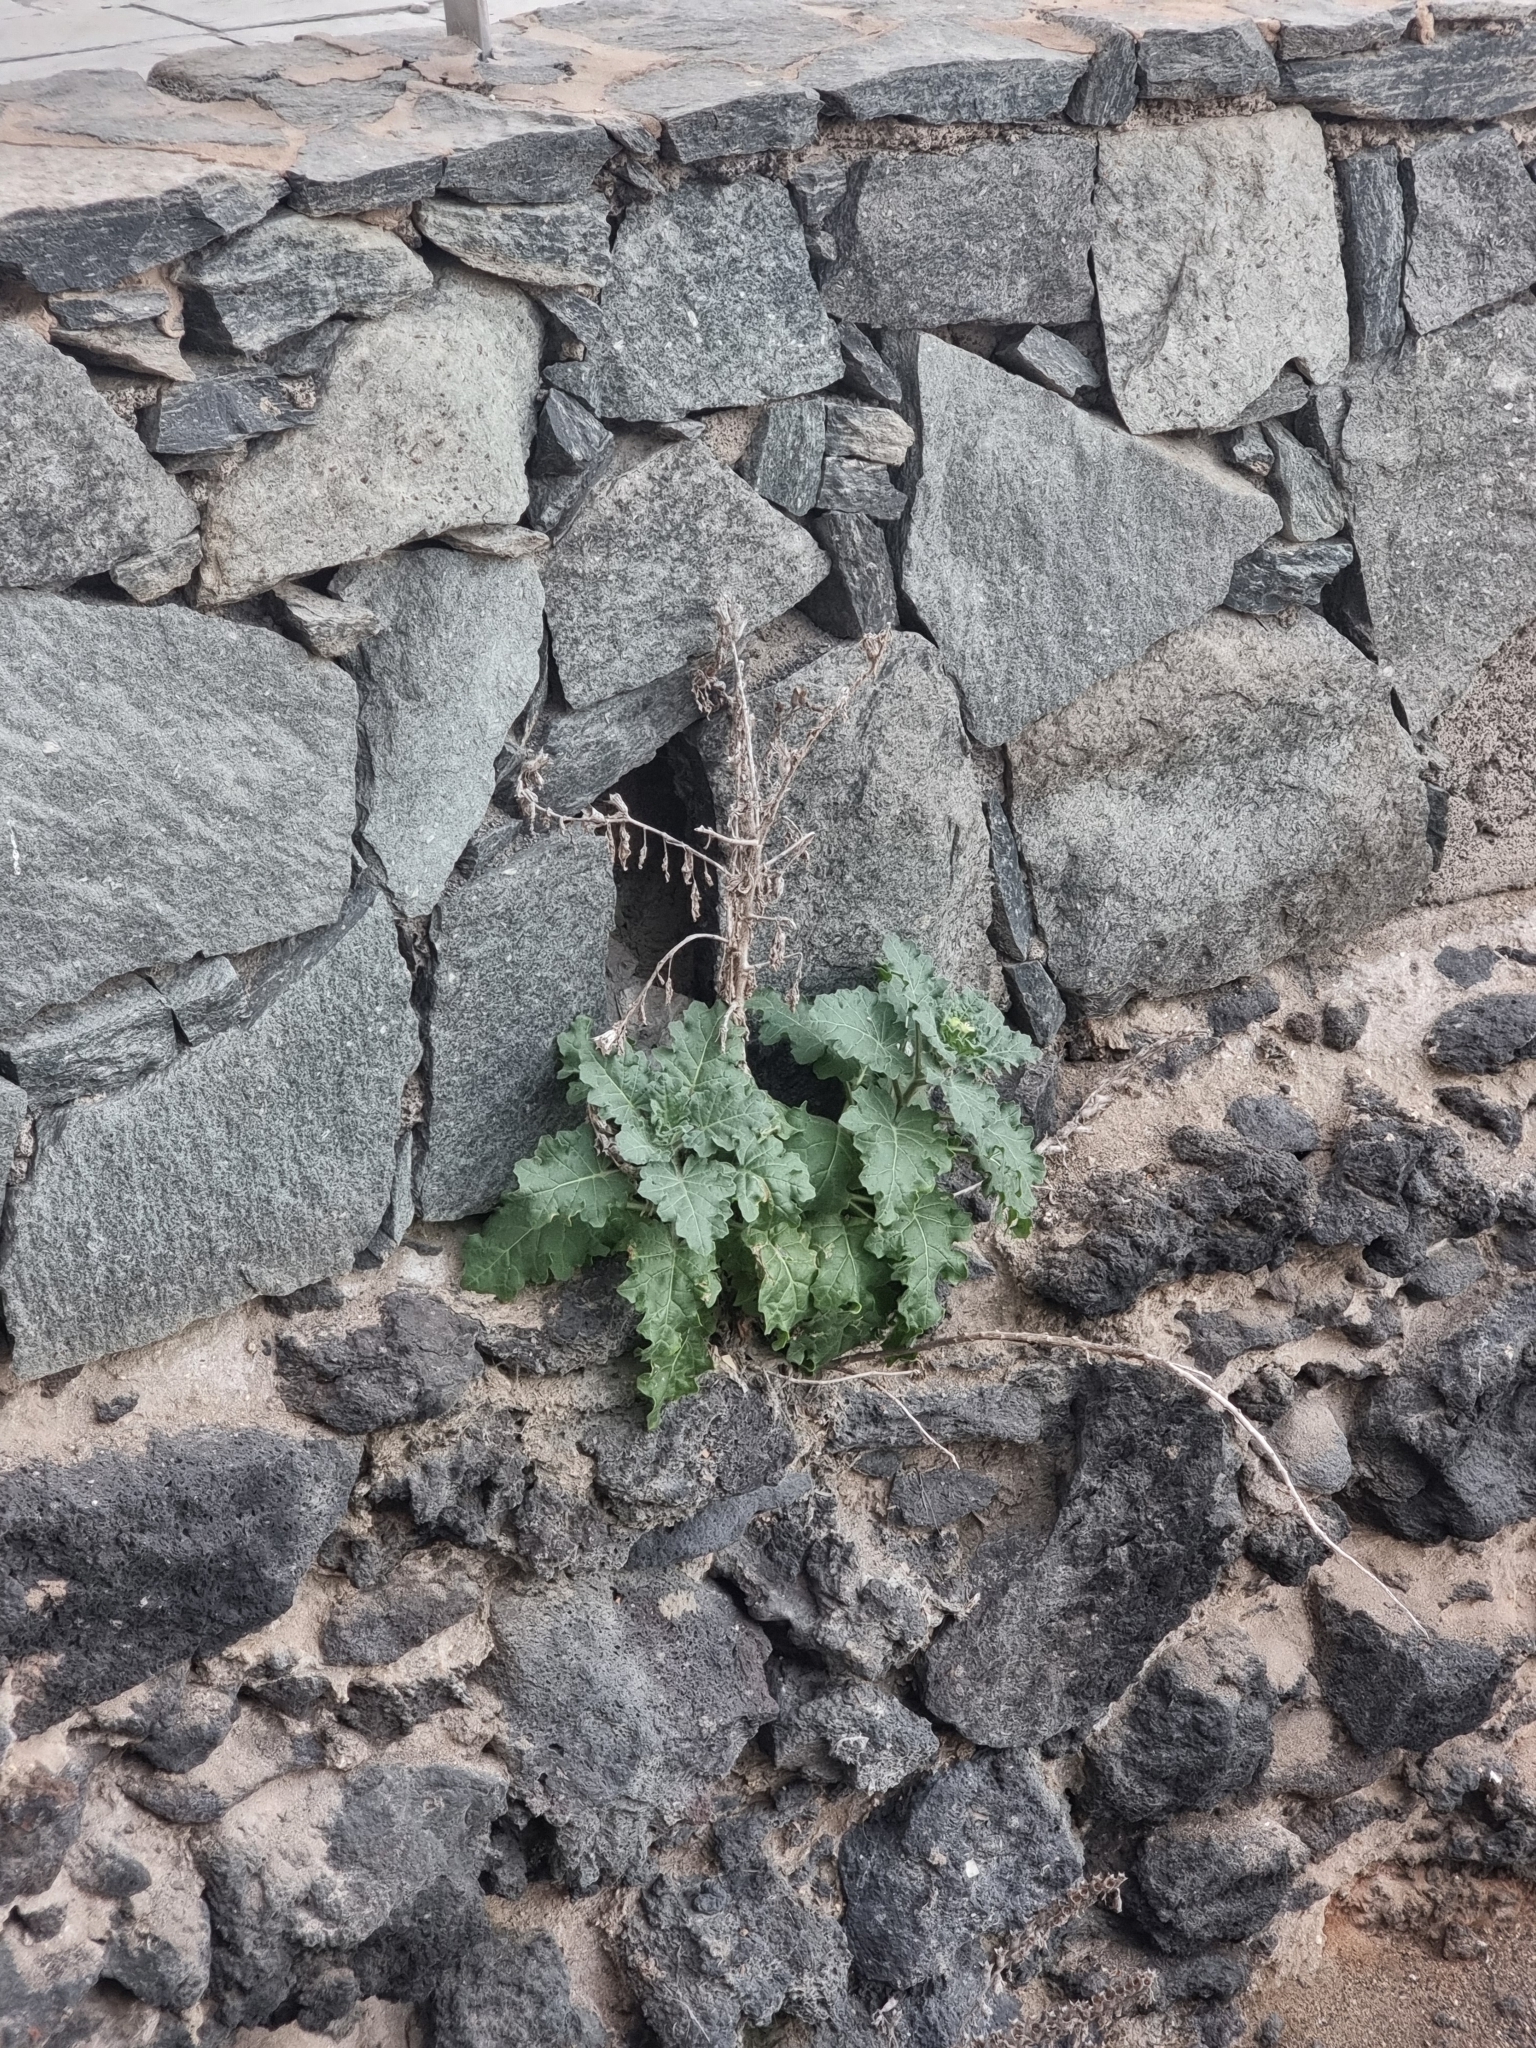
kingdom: Plantae
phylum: Tracheophyta
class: Magnoliopsida
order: Solanales
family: Solanaceae
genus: Hyoscyamus
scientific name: Hyoscyamus albus
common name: White henbane
